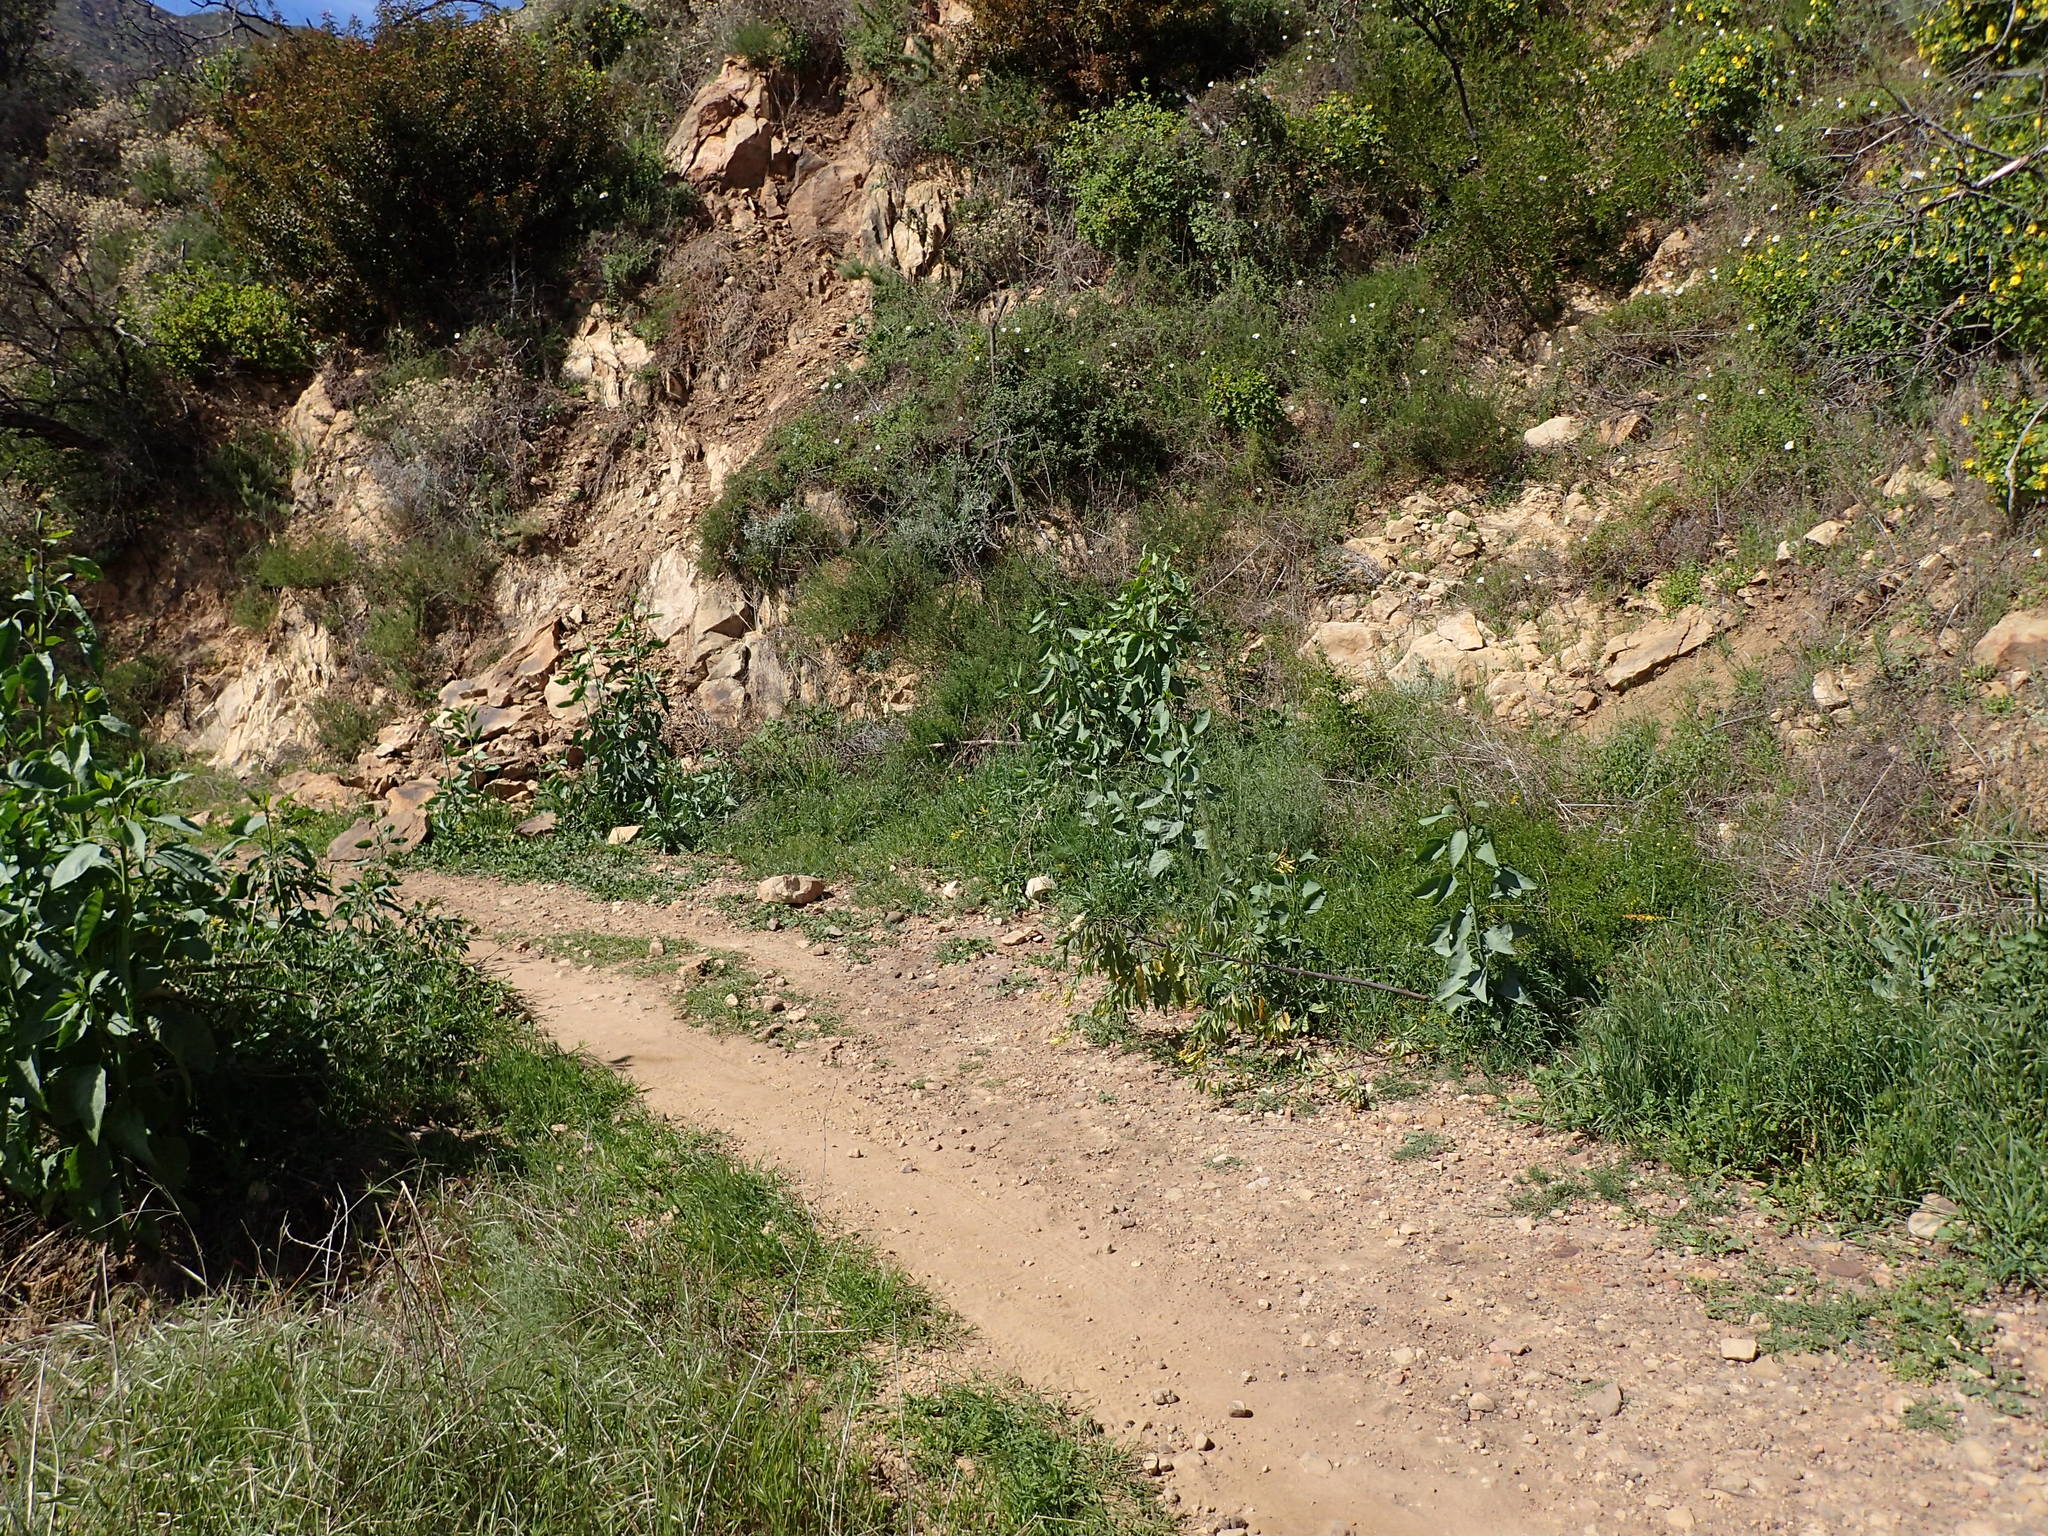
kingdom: Plantae
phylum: Tracheophyta
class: Magnoliopsida
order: Solanales
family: Solanaceae
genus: Nicotiana
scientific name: Nicotiana glauca
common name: Tree tobacco
